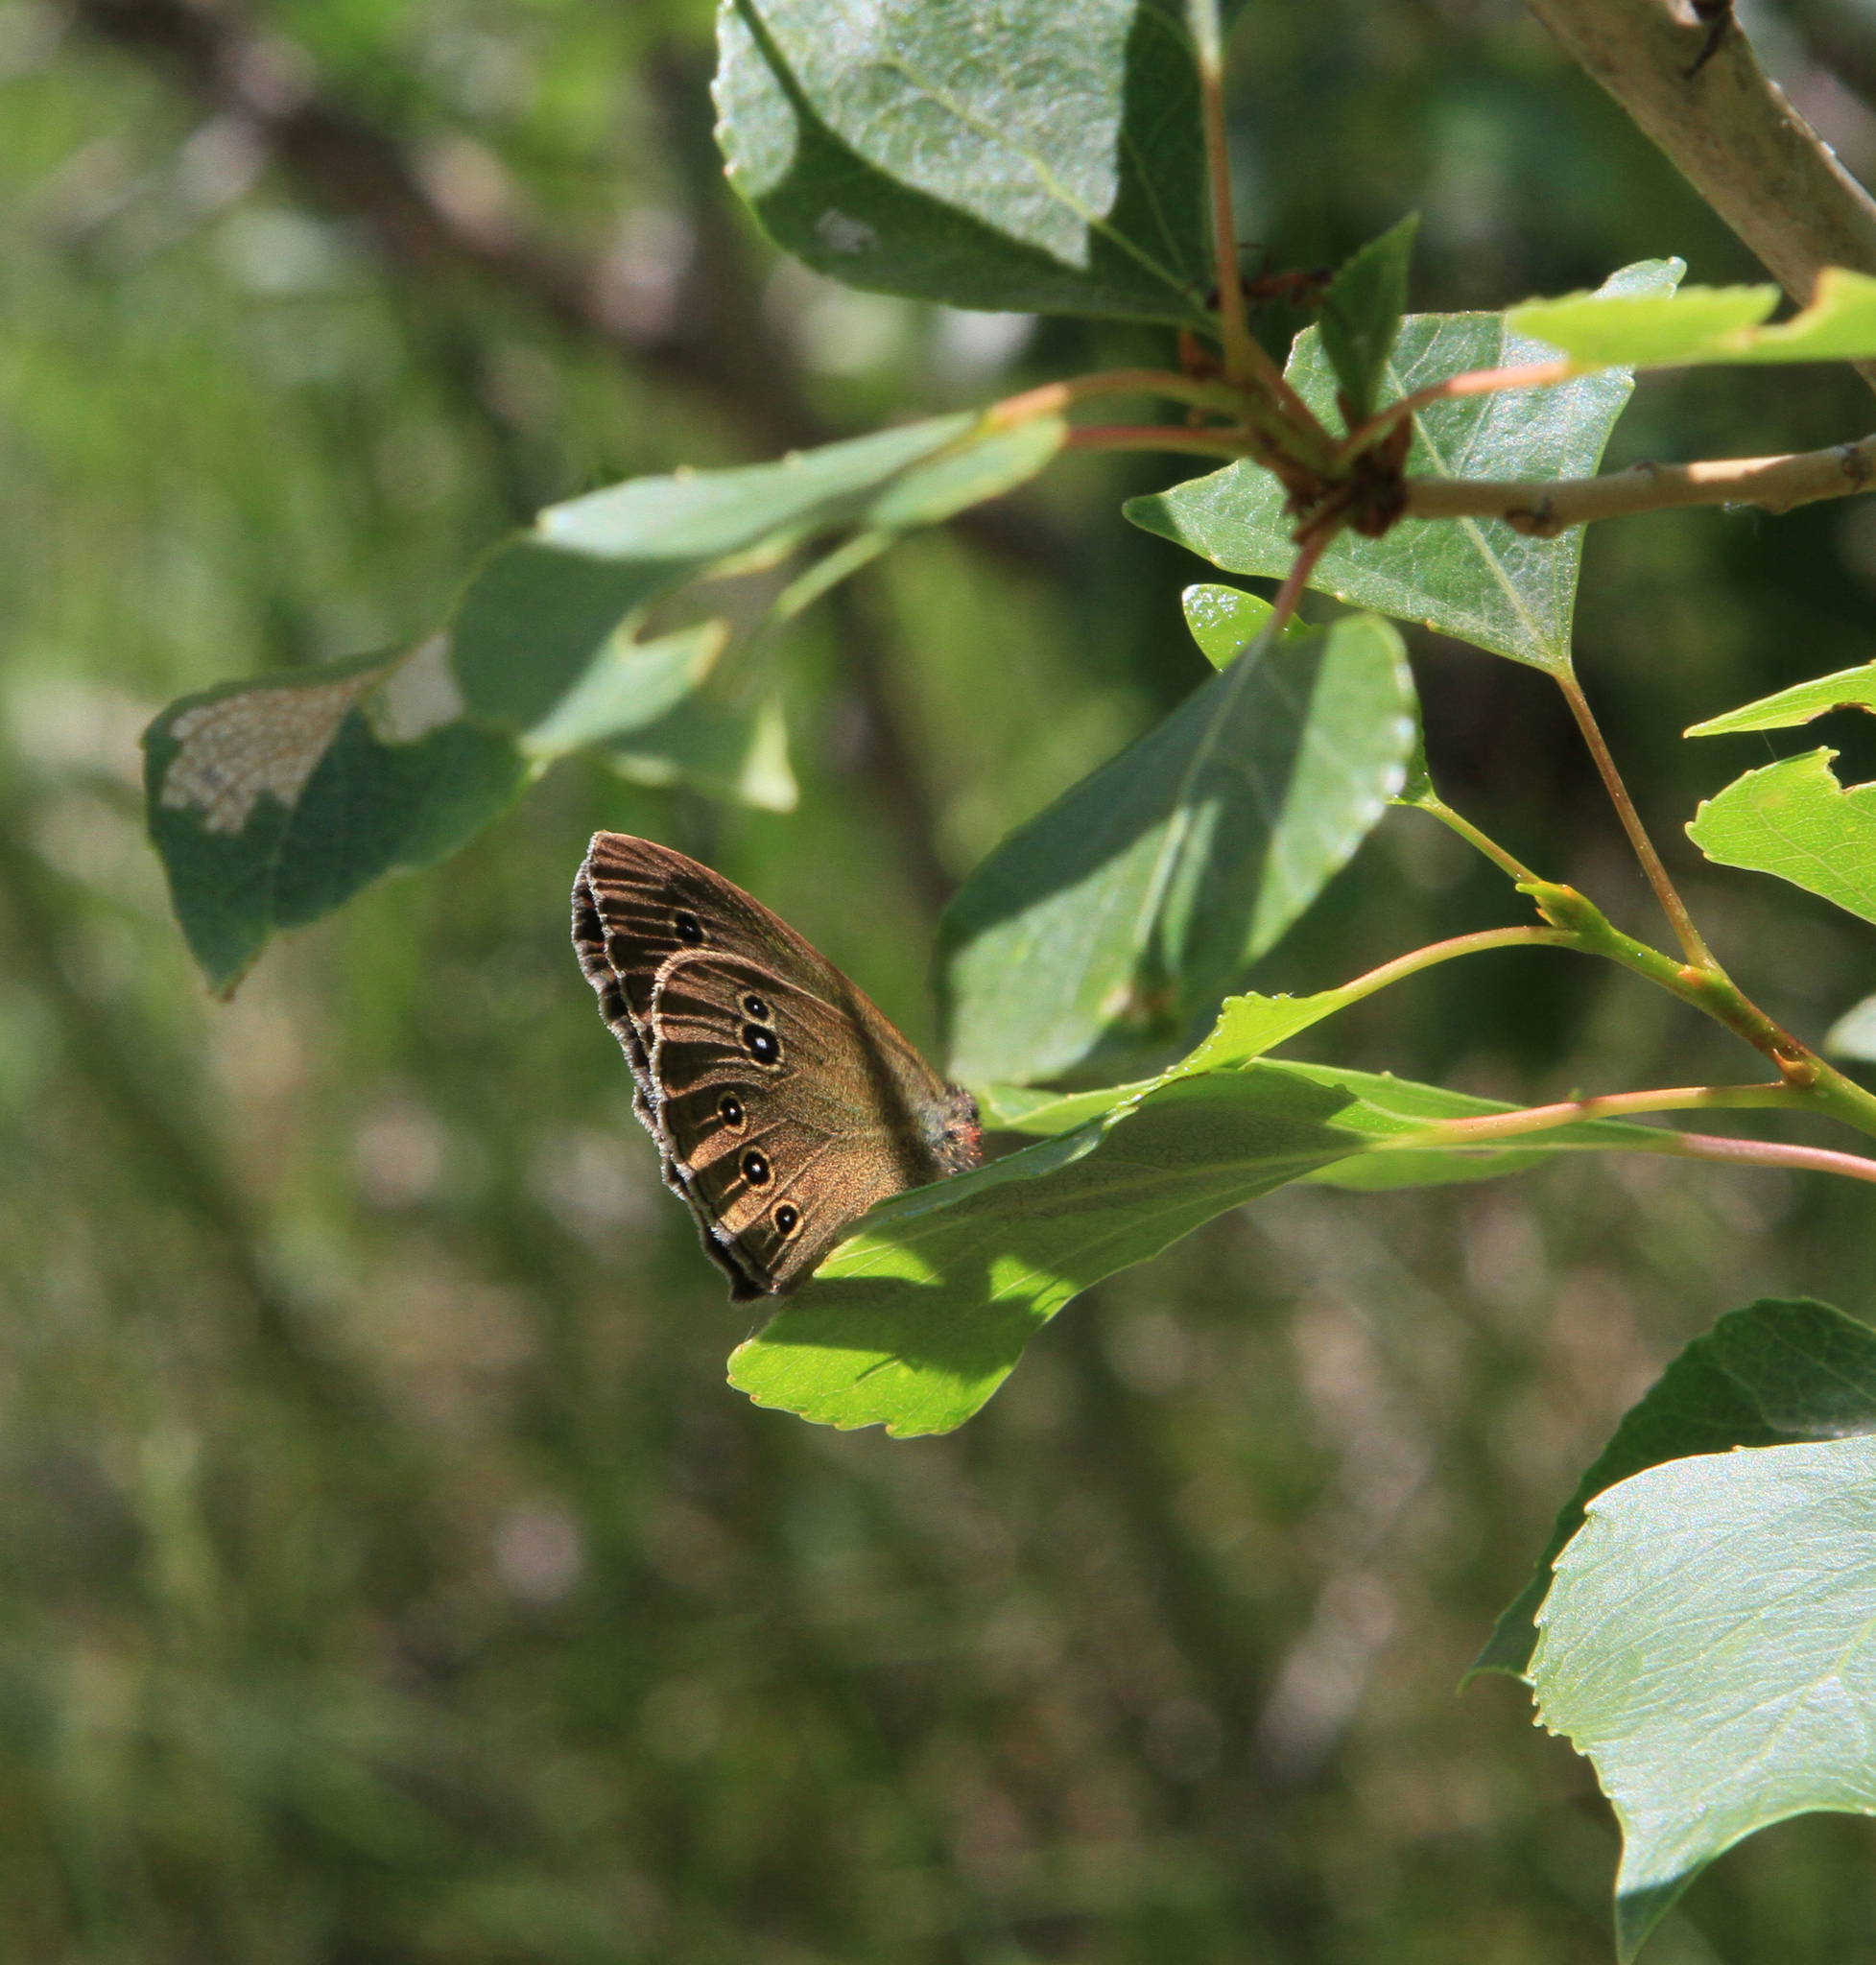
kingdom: Animalia
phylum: Arthropoda
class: Insecta
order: Lepidoptera
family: Nymphalidae
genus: Aphantopus
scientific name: Aphantopus hyperantus
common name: Ringlet
